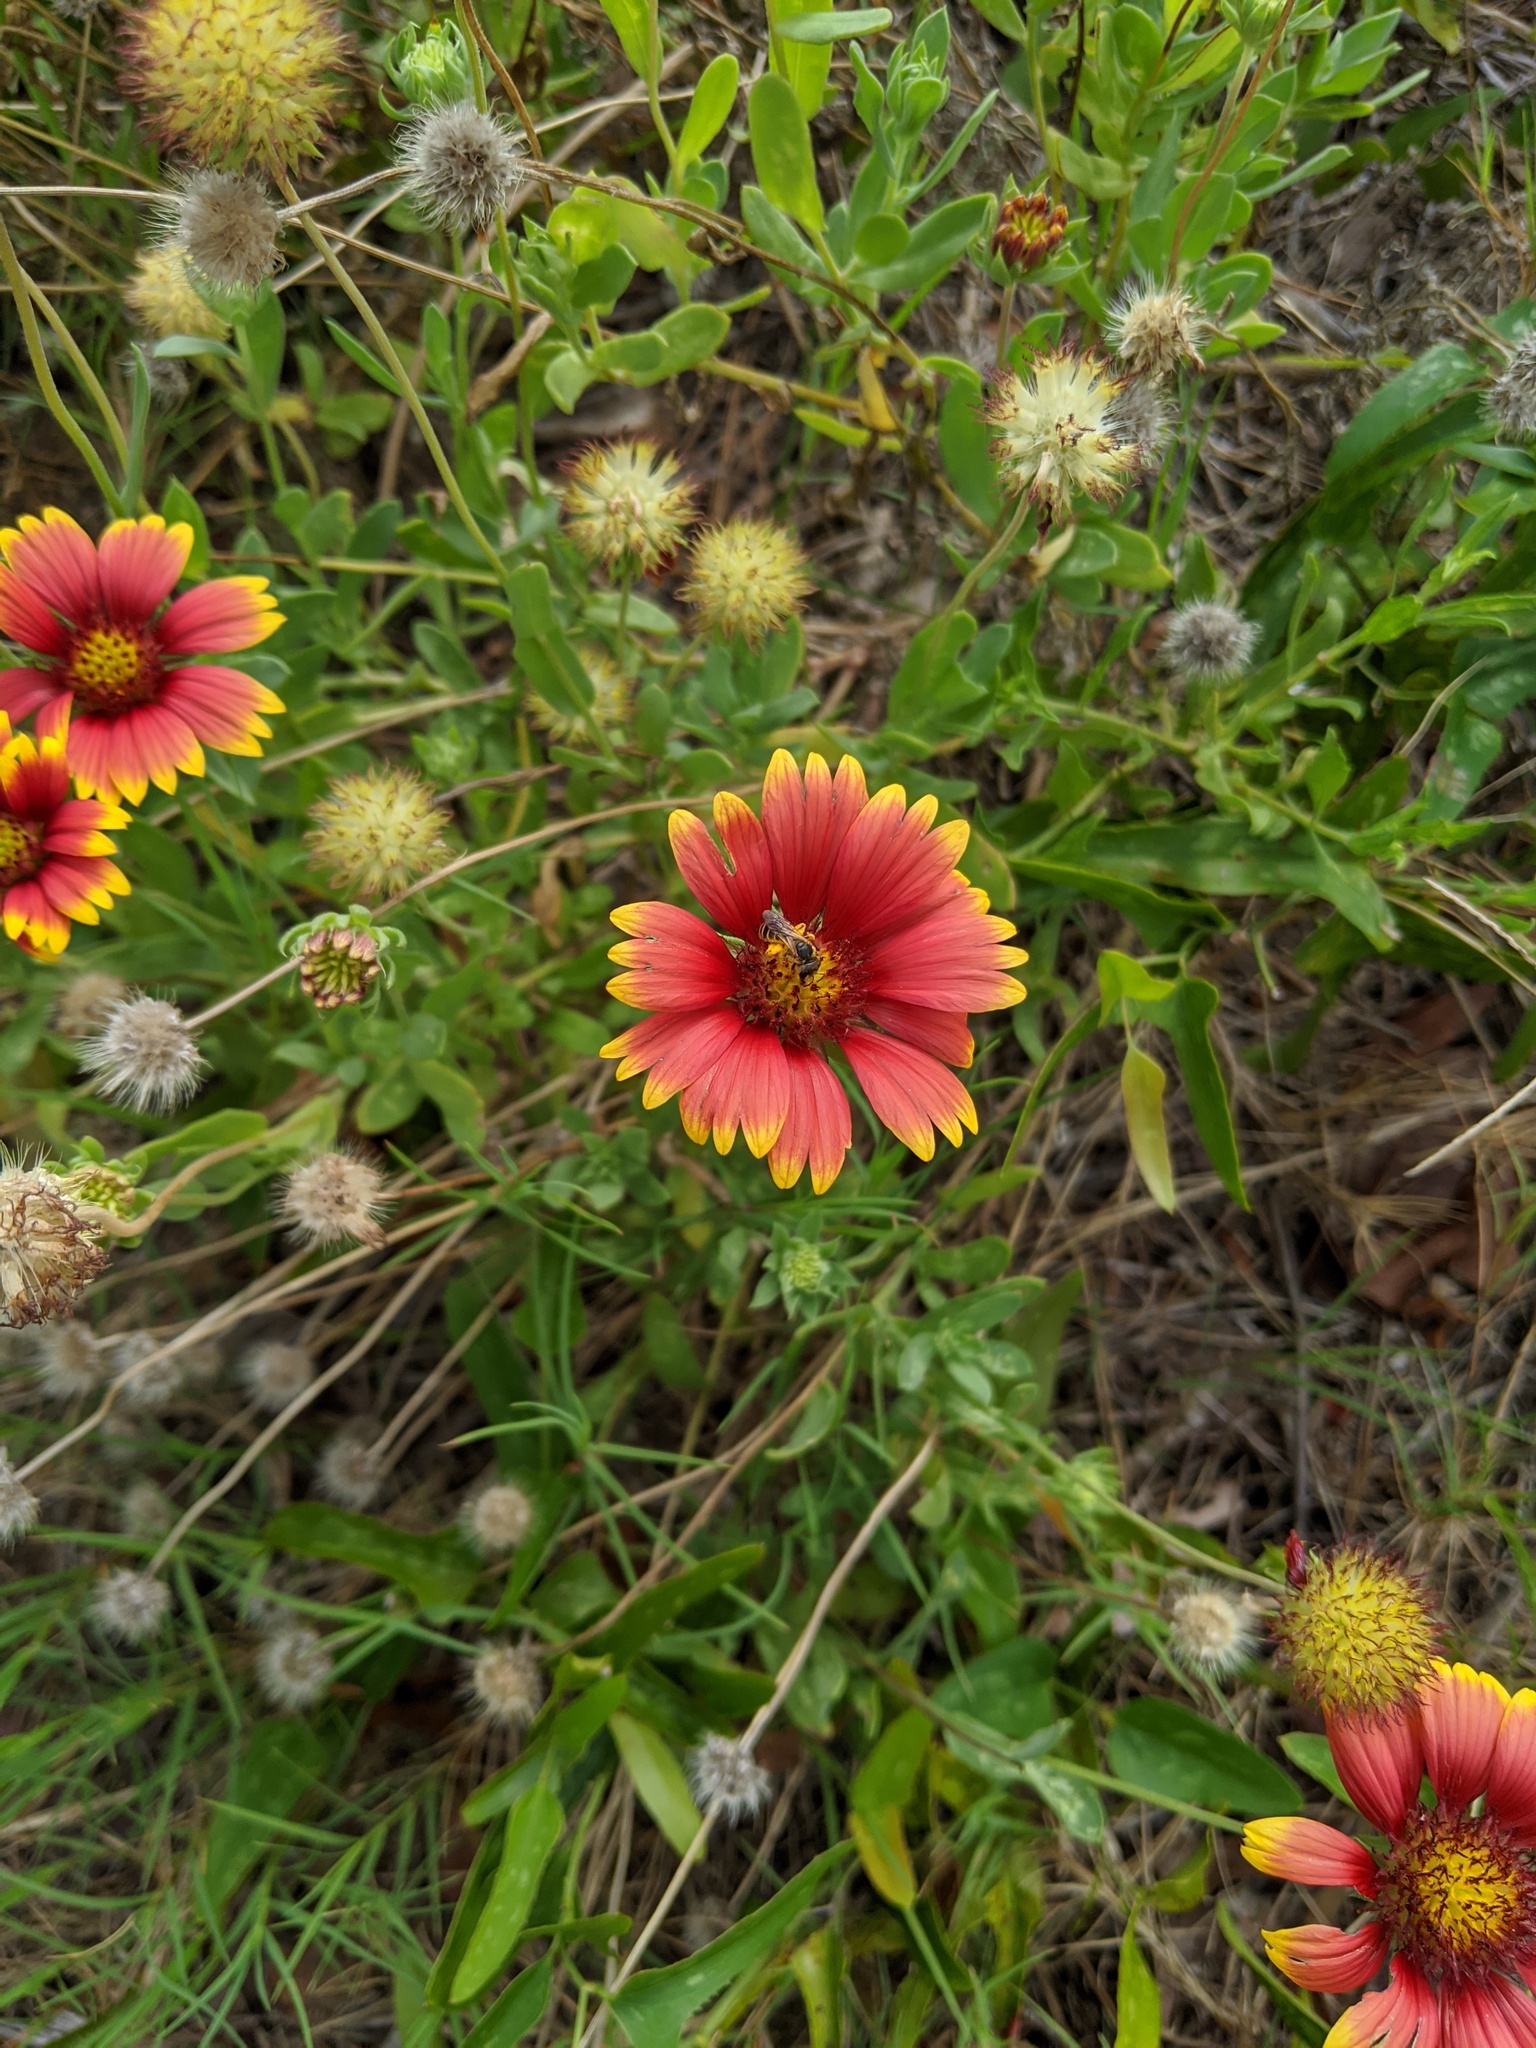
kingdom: Plantae
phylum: Tracheophyta
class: Magnoliopsida
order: Asterales
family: Asteraceae
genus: Gaillardia
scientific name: Gaillardia pulchella
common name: Firewheel
